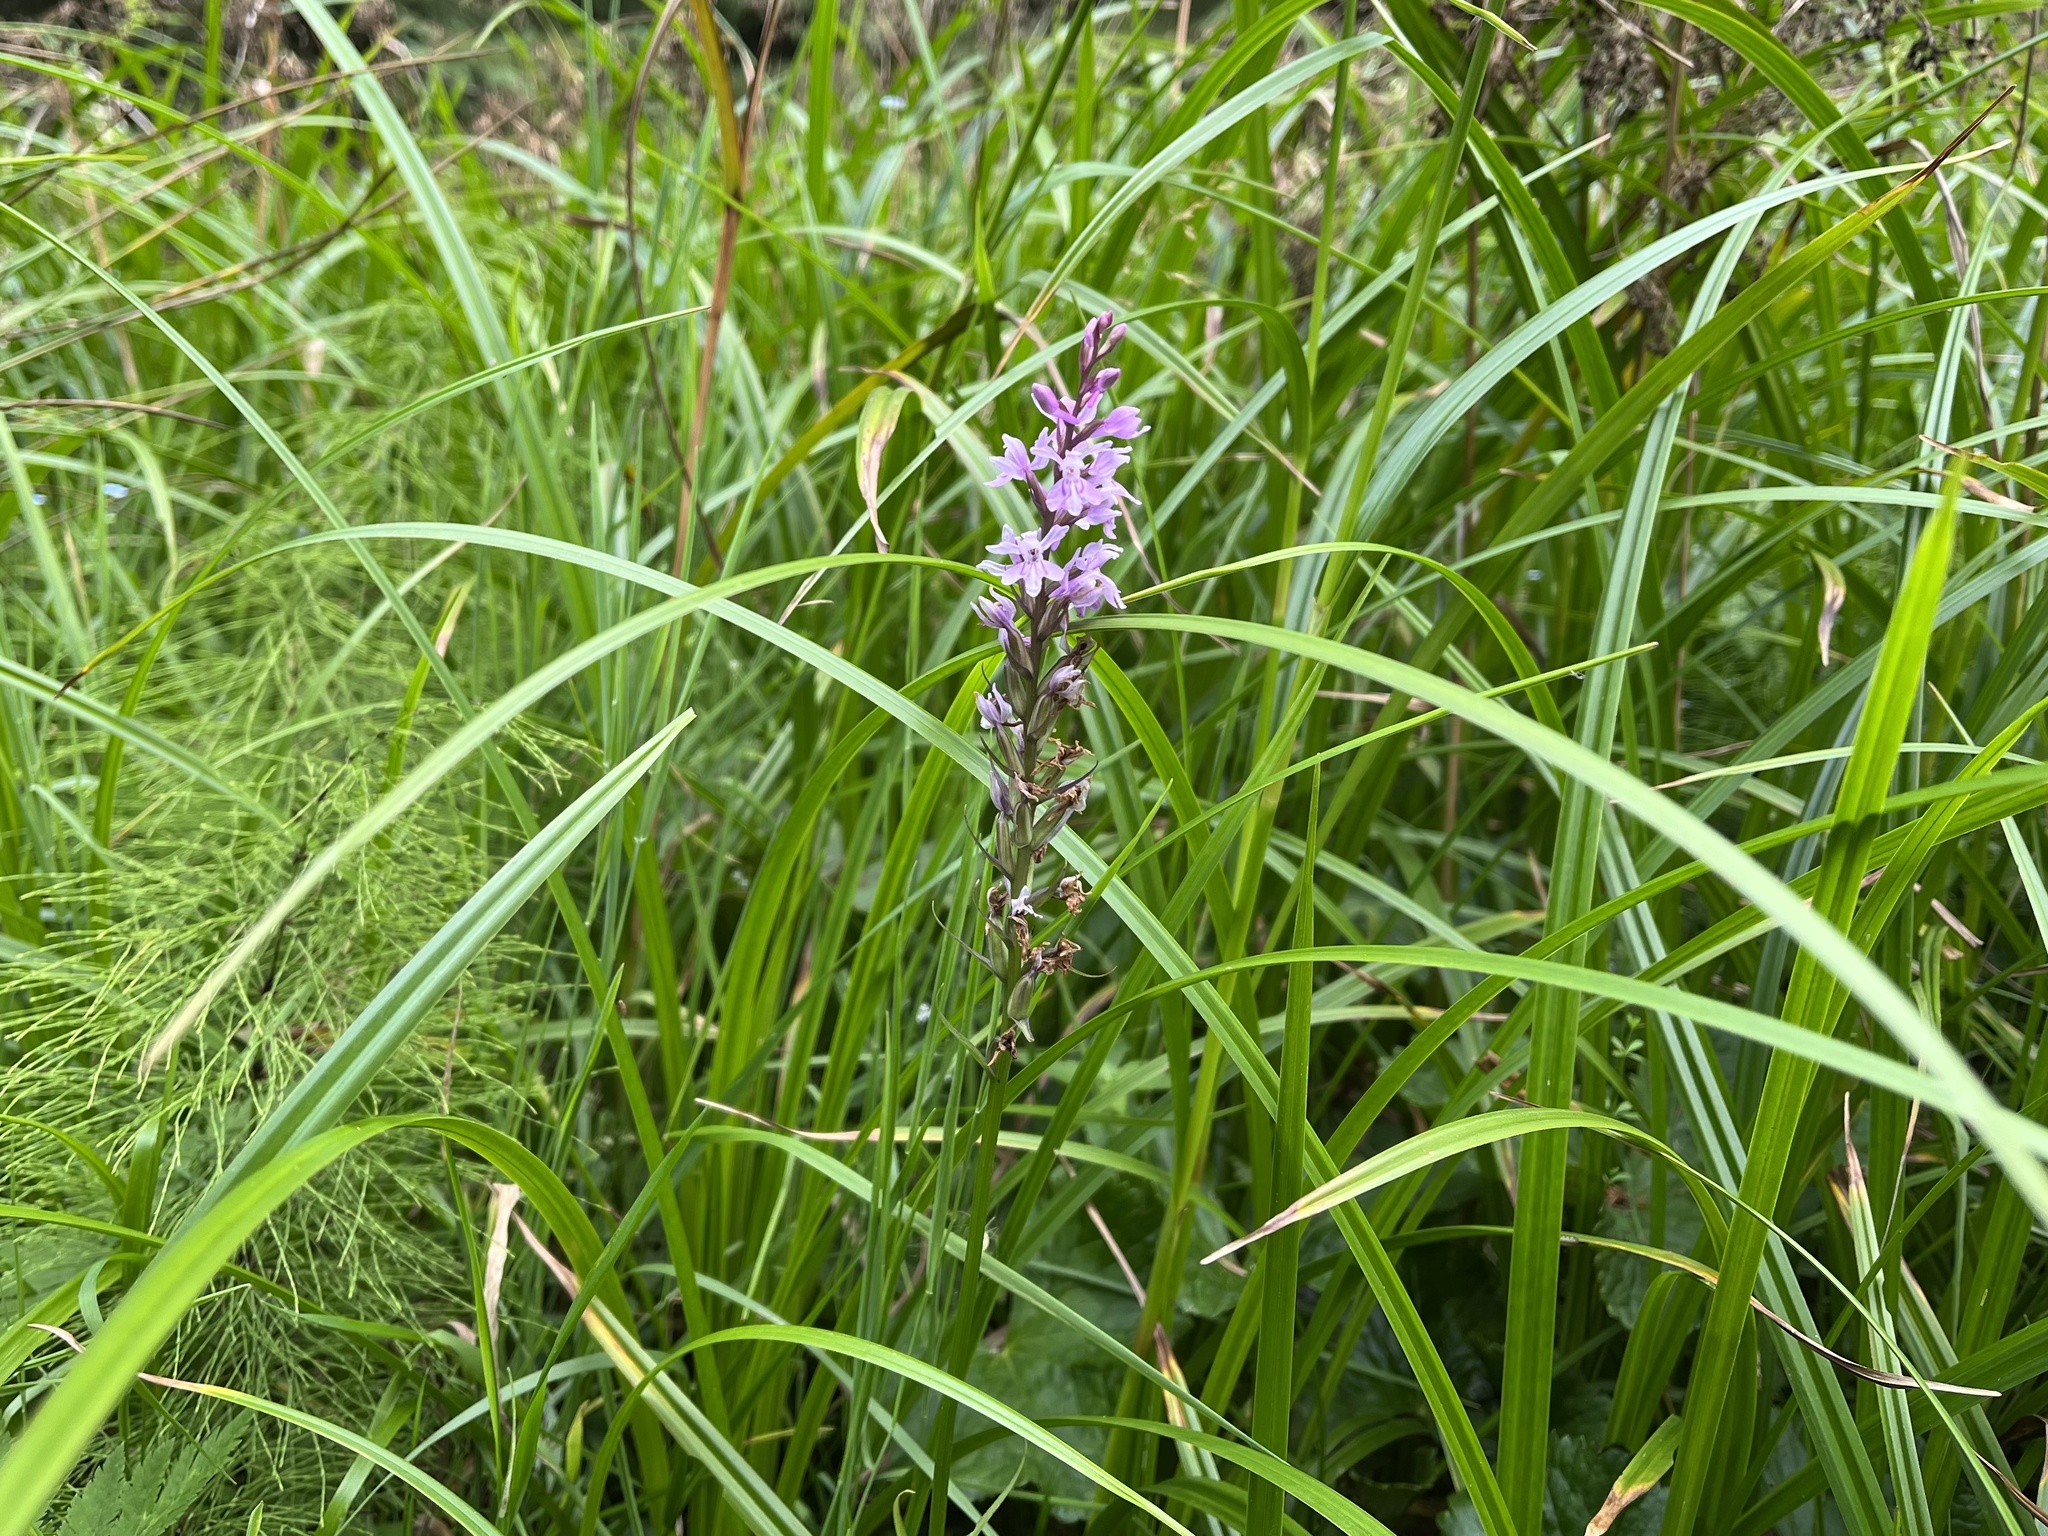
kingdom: Plantae
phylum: Tracheophyta
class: Liliopsida
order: Asparagales
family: Orchidaceae
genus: Dactylorhiza
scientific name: Dactylorhiza maculata
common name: Heath spotted-orchid
